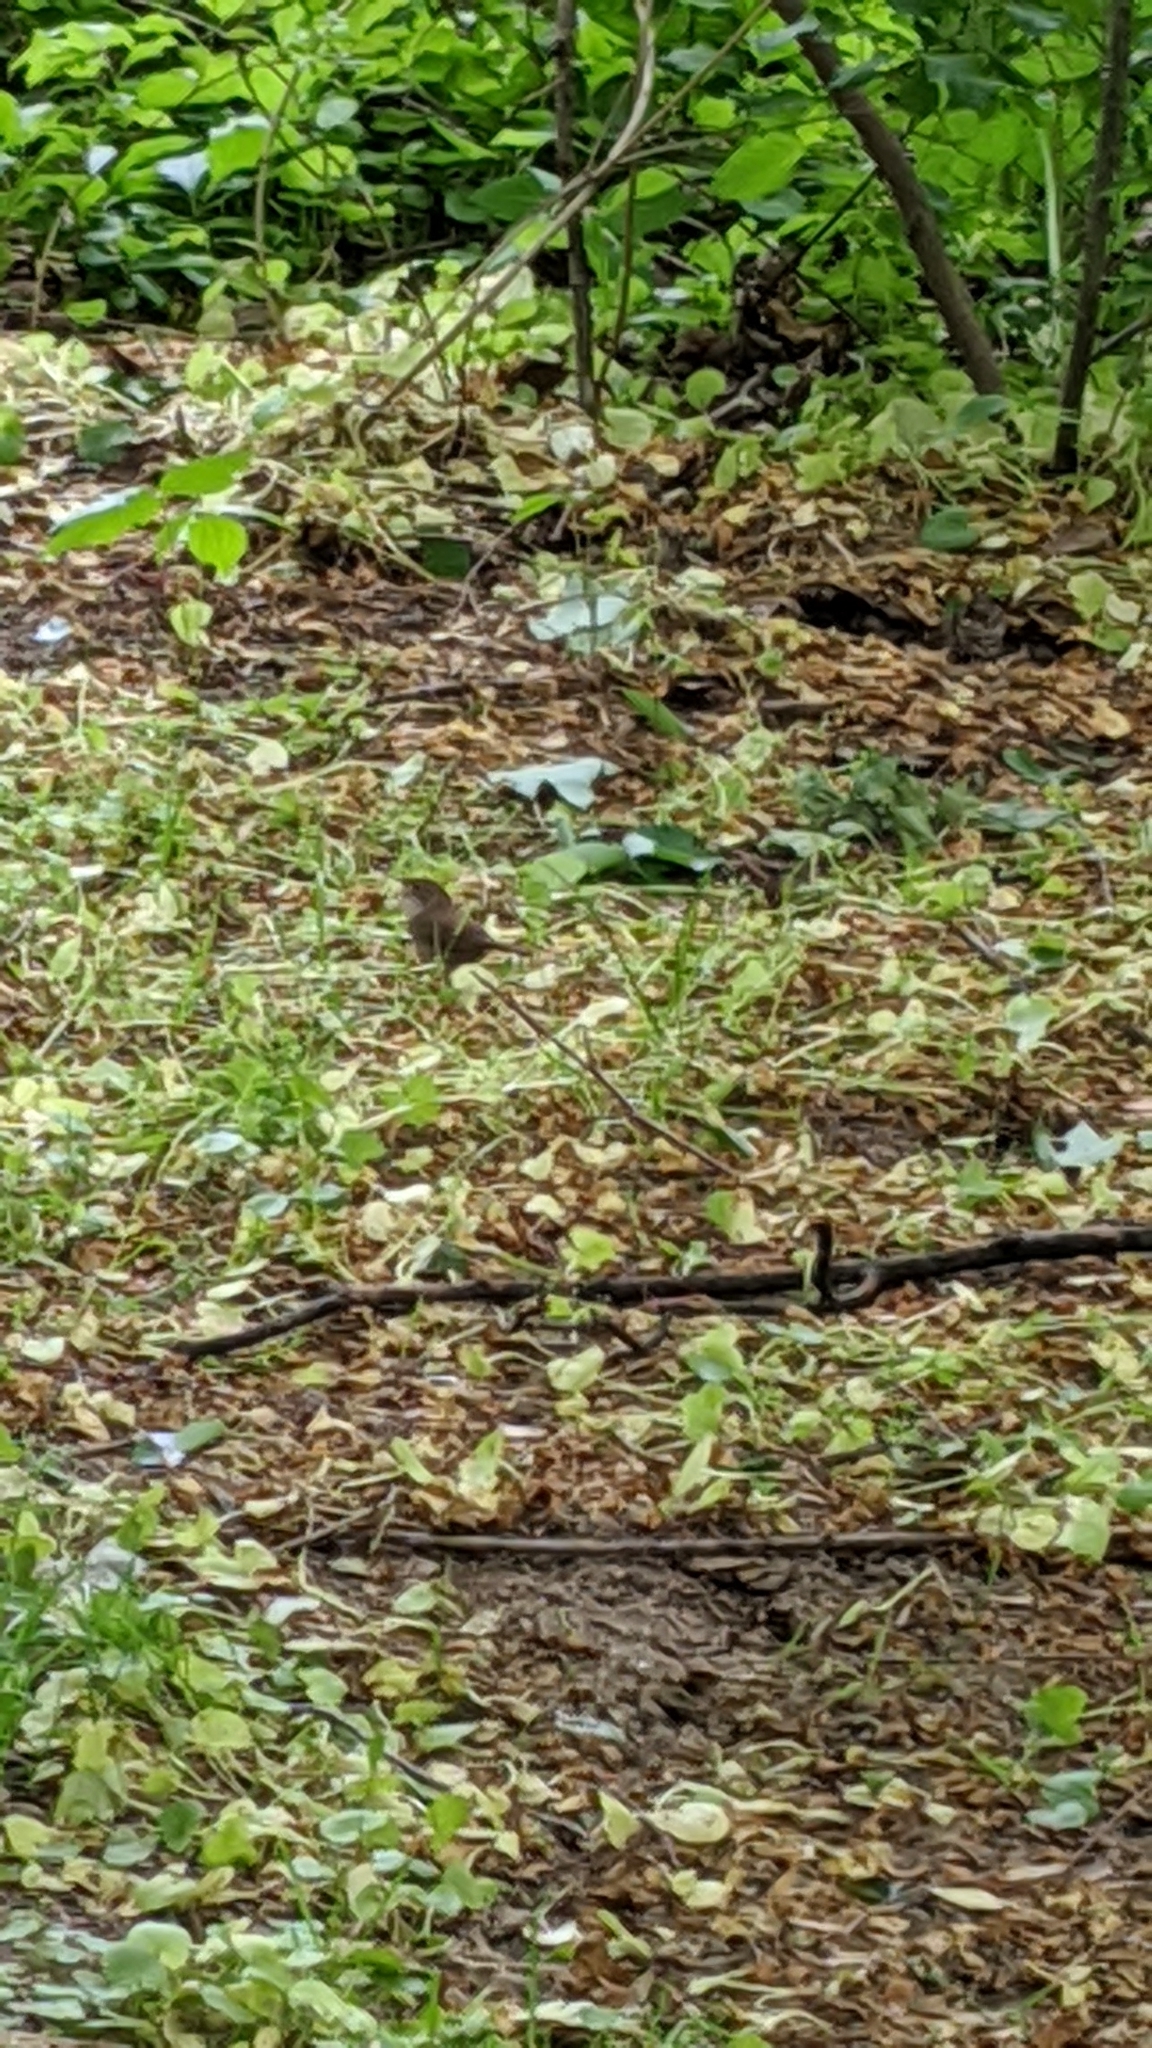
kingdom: Animalia
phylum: Chordata
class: Aves
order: Passeriformes
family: Troglodytidae
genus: Troglodytes
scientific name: Troglodytes aedon
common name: House wren
